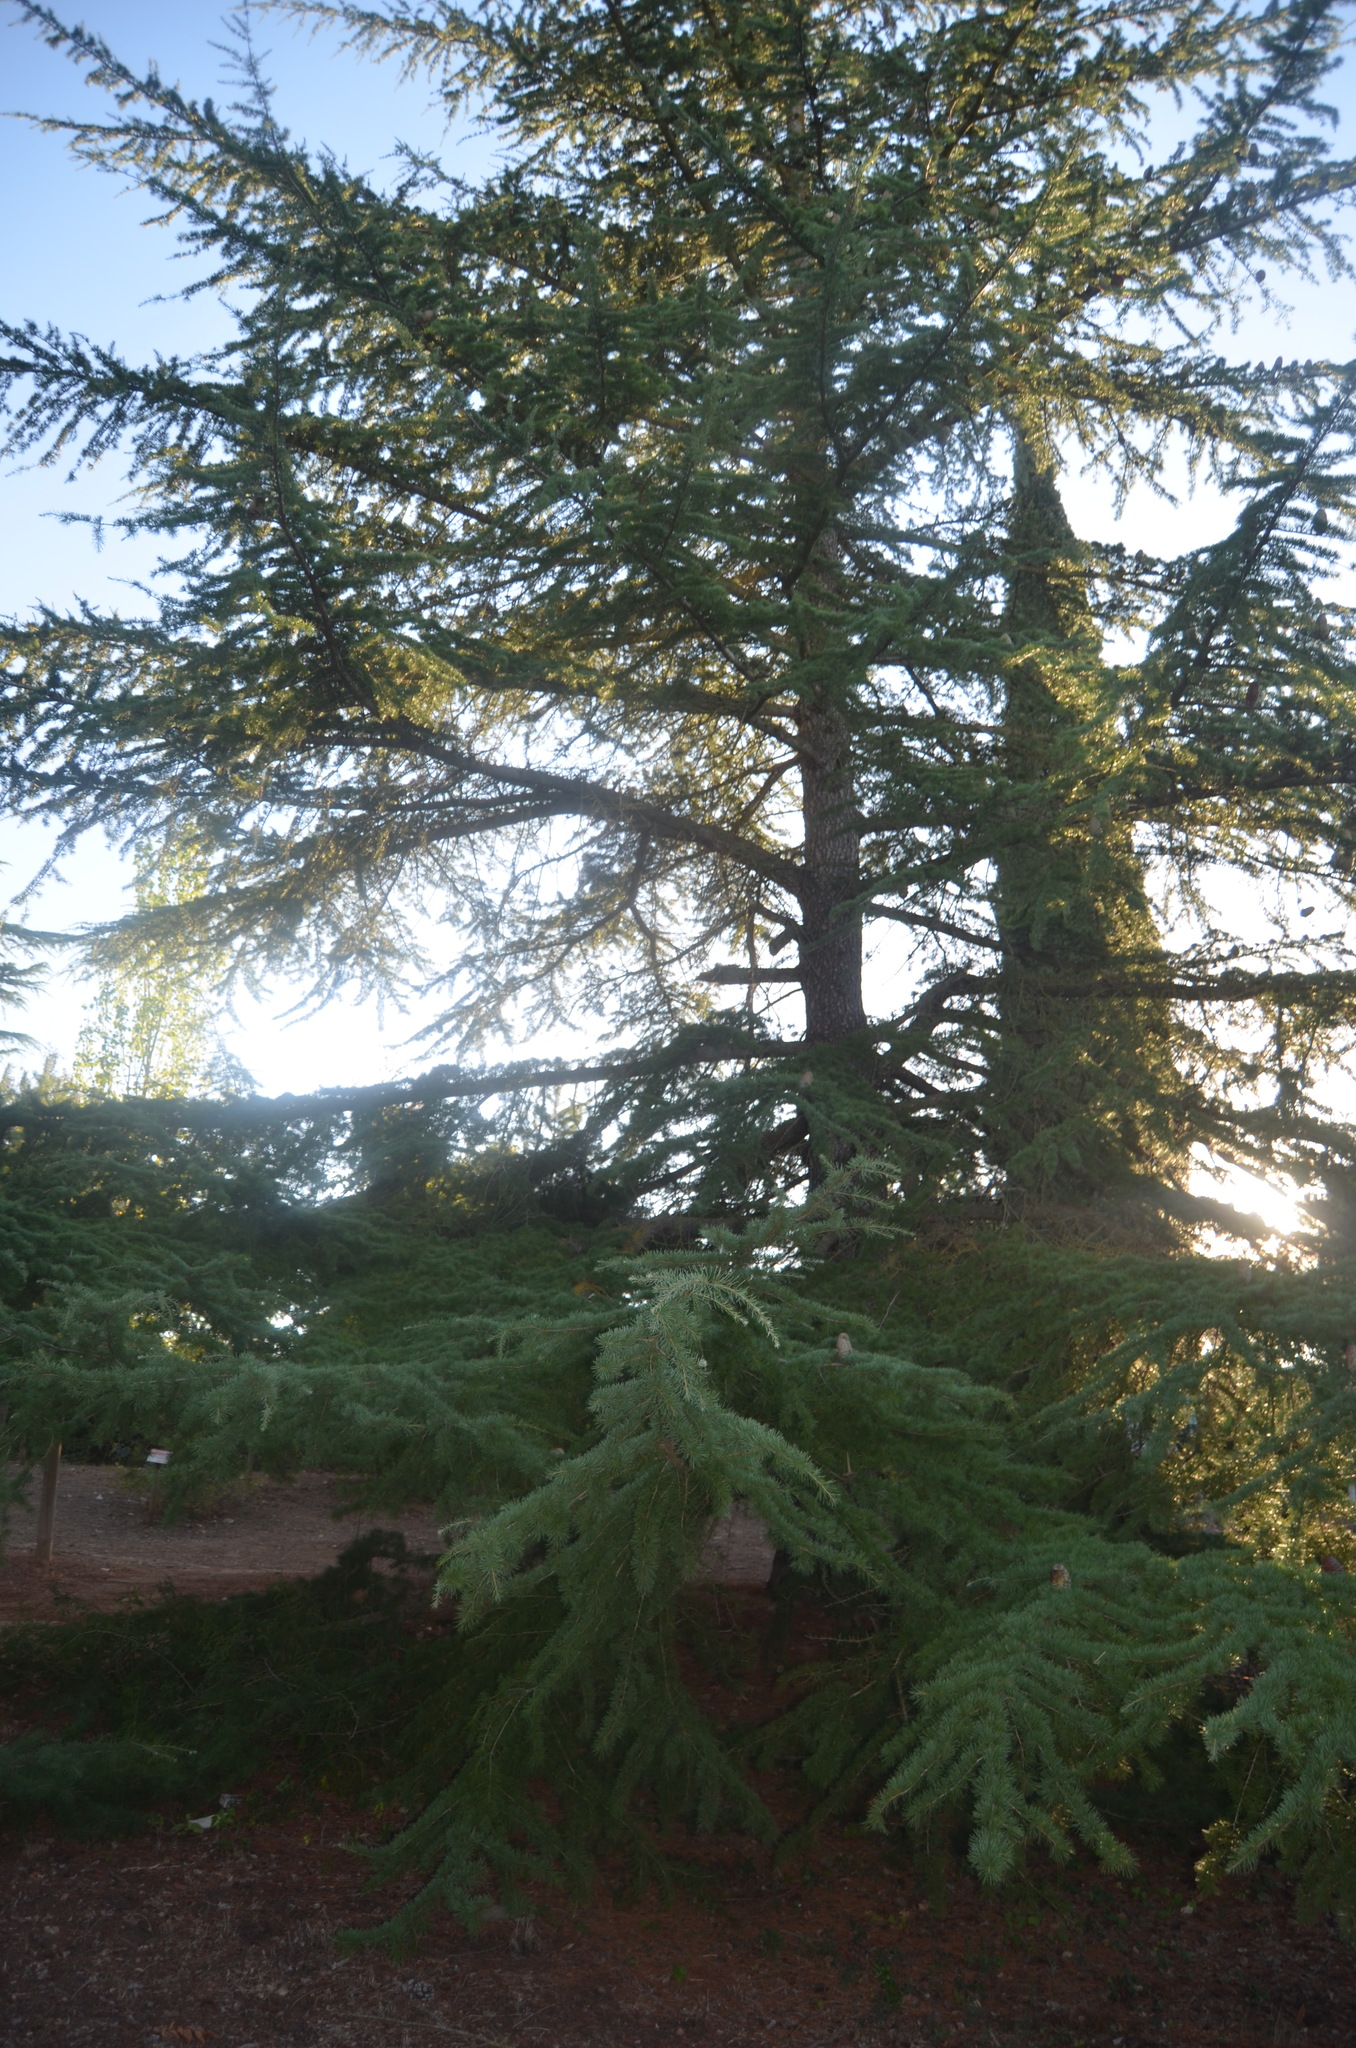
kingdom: Plantae
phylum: Tracheophyta
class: Pinopsida
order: Pinales
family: Pinaceae
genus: Cedrus
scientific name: Cedrus atlantica
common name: Atlas cedar
